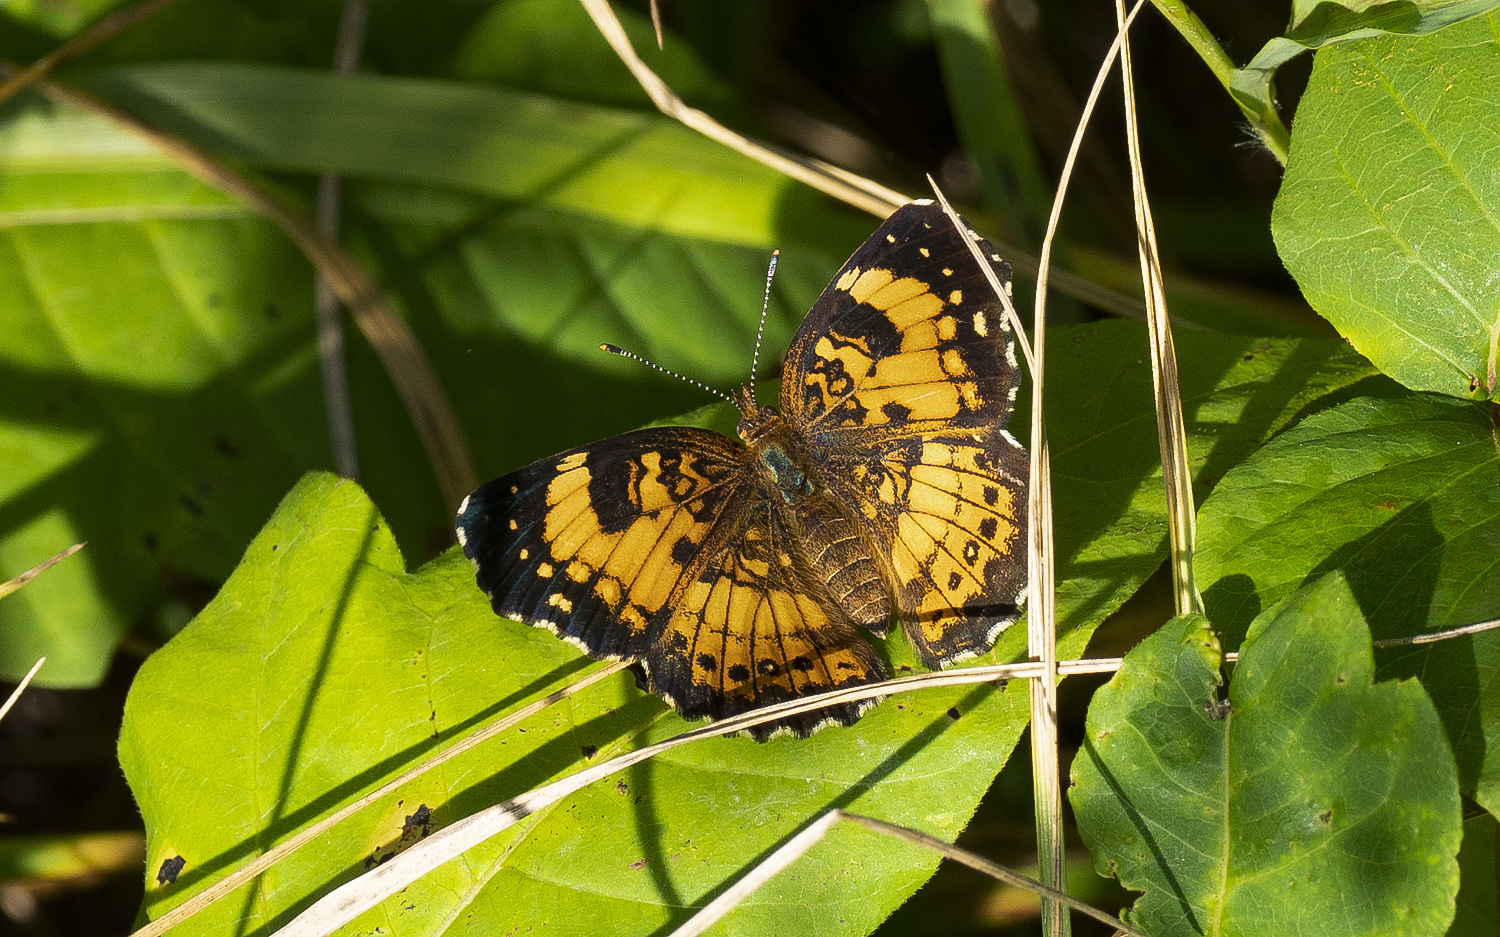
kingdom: Animalia
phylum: Arthropoda
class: Insecta
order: Lepidoptera
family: Nymphalidae
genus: Chlosyne
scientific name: Chlosyne nycteis
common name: Silvery checkerspot
